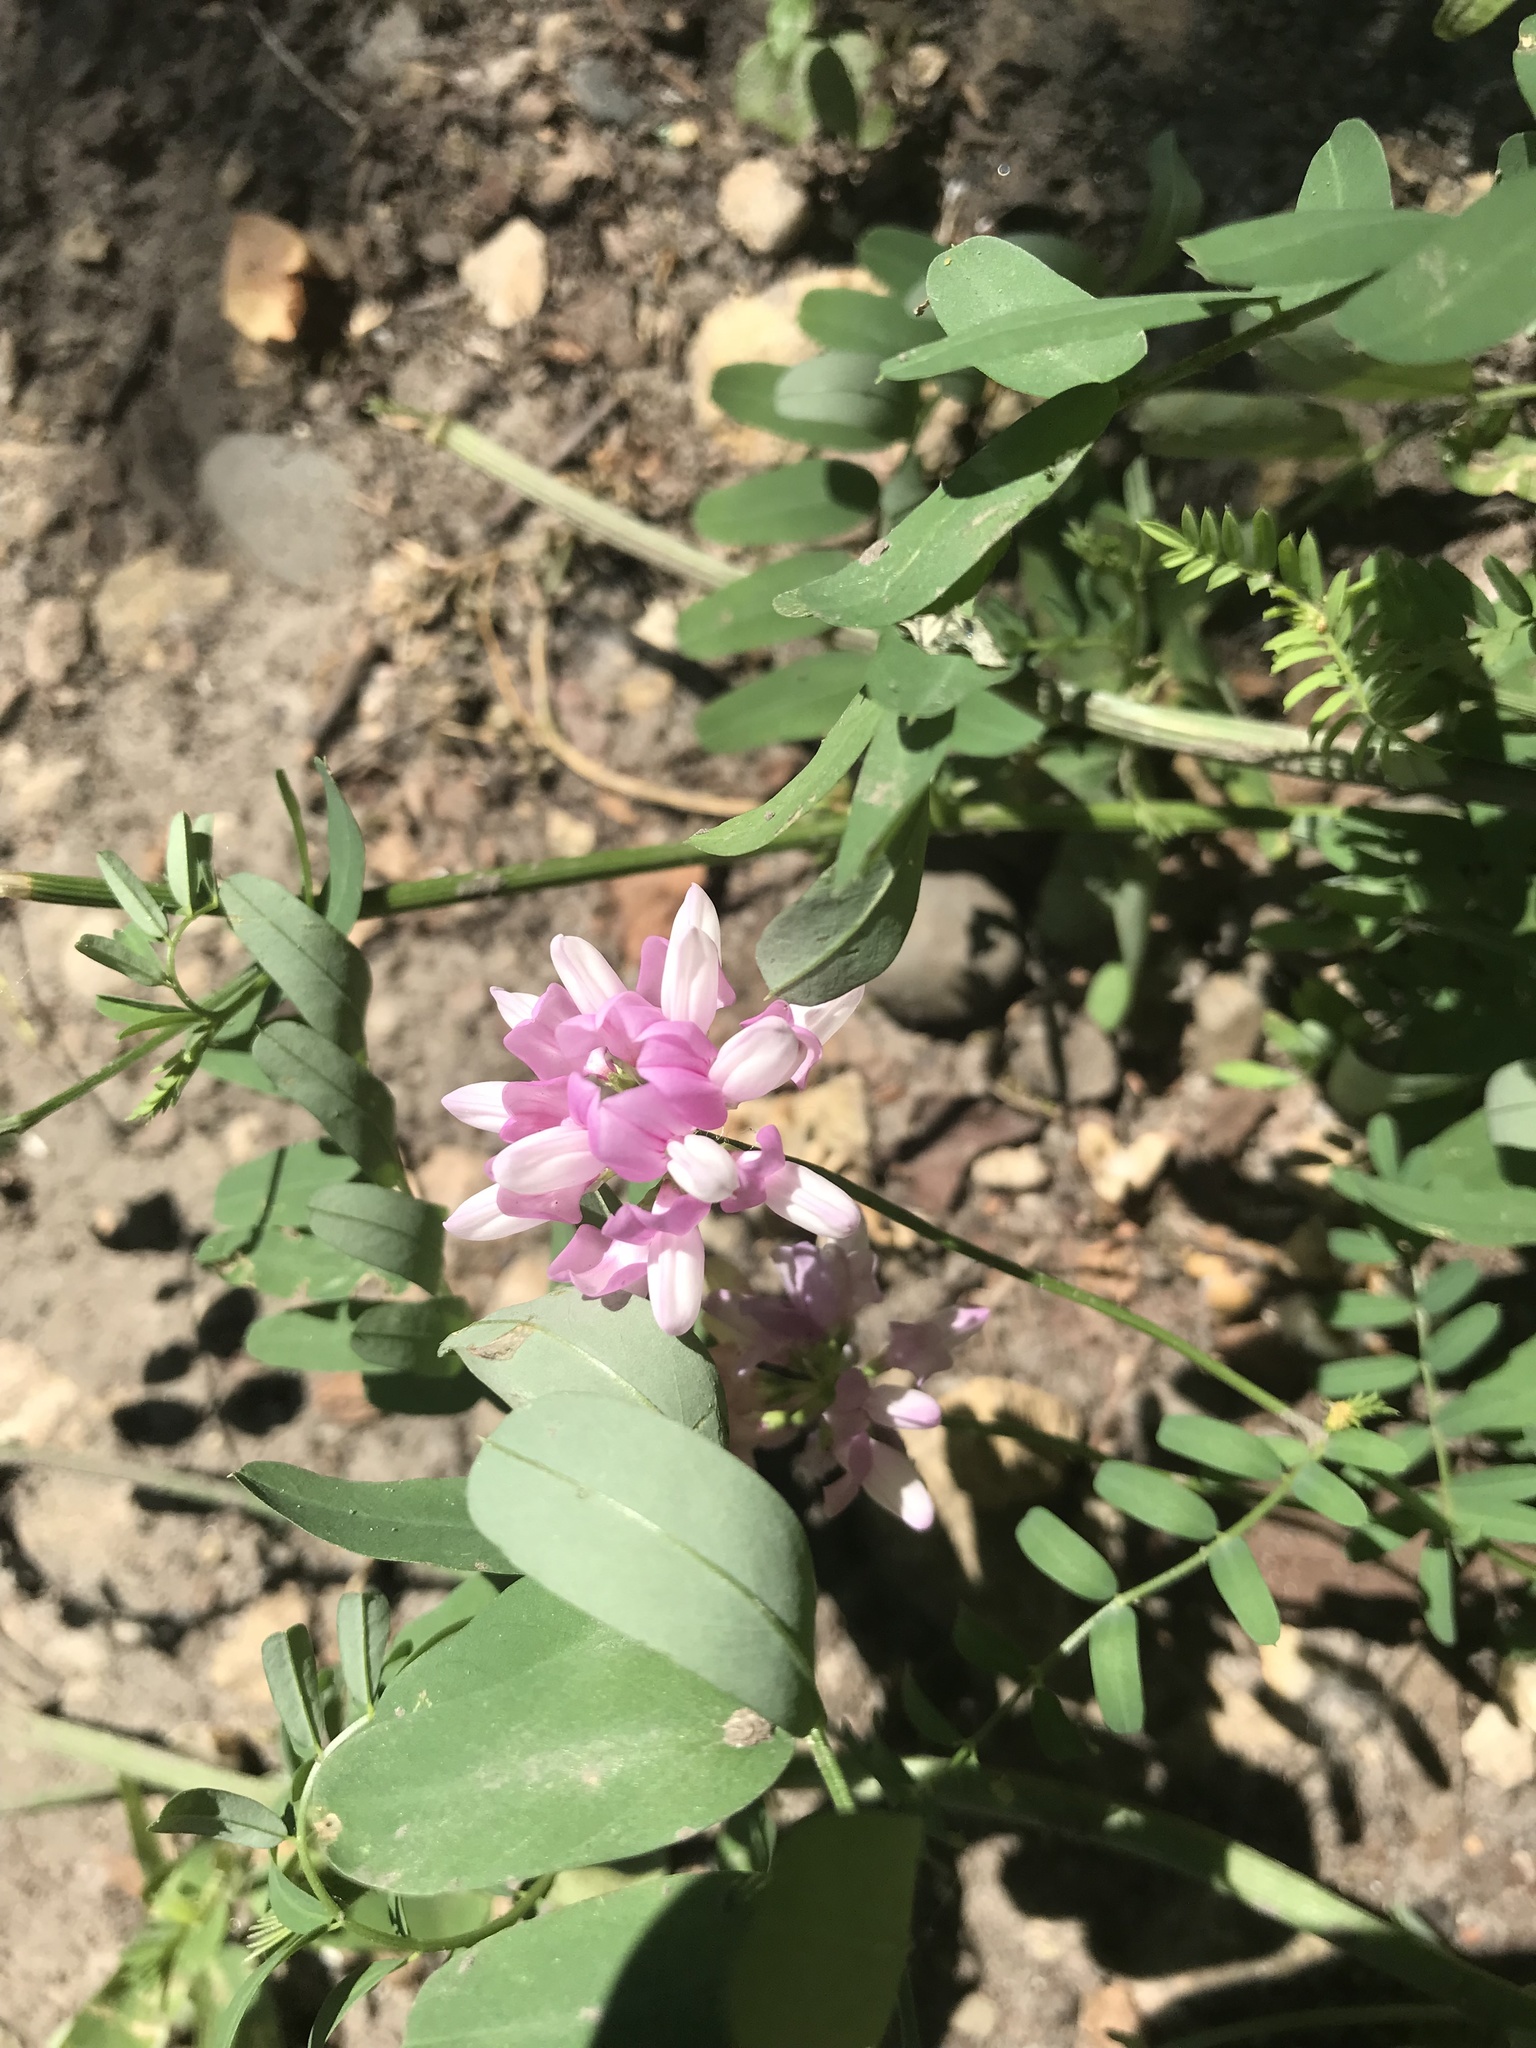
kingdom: Plantae
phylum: Tracheophyta
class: Magnoliopsida
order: Fabales
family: Fabaceae
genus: Coronilla
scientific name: Coronilla varia
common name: Crownvetch
